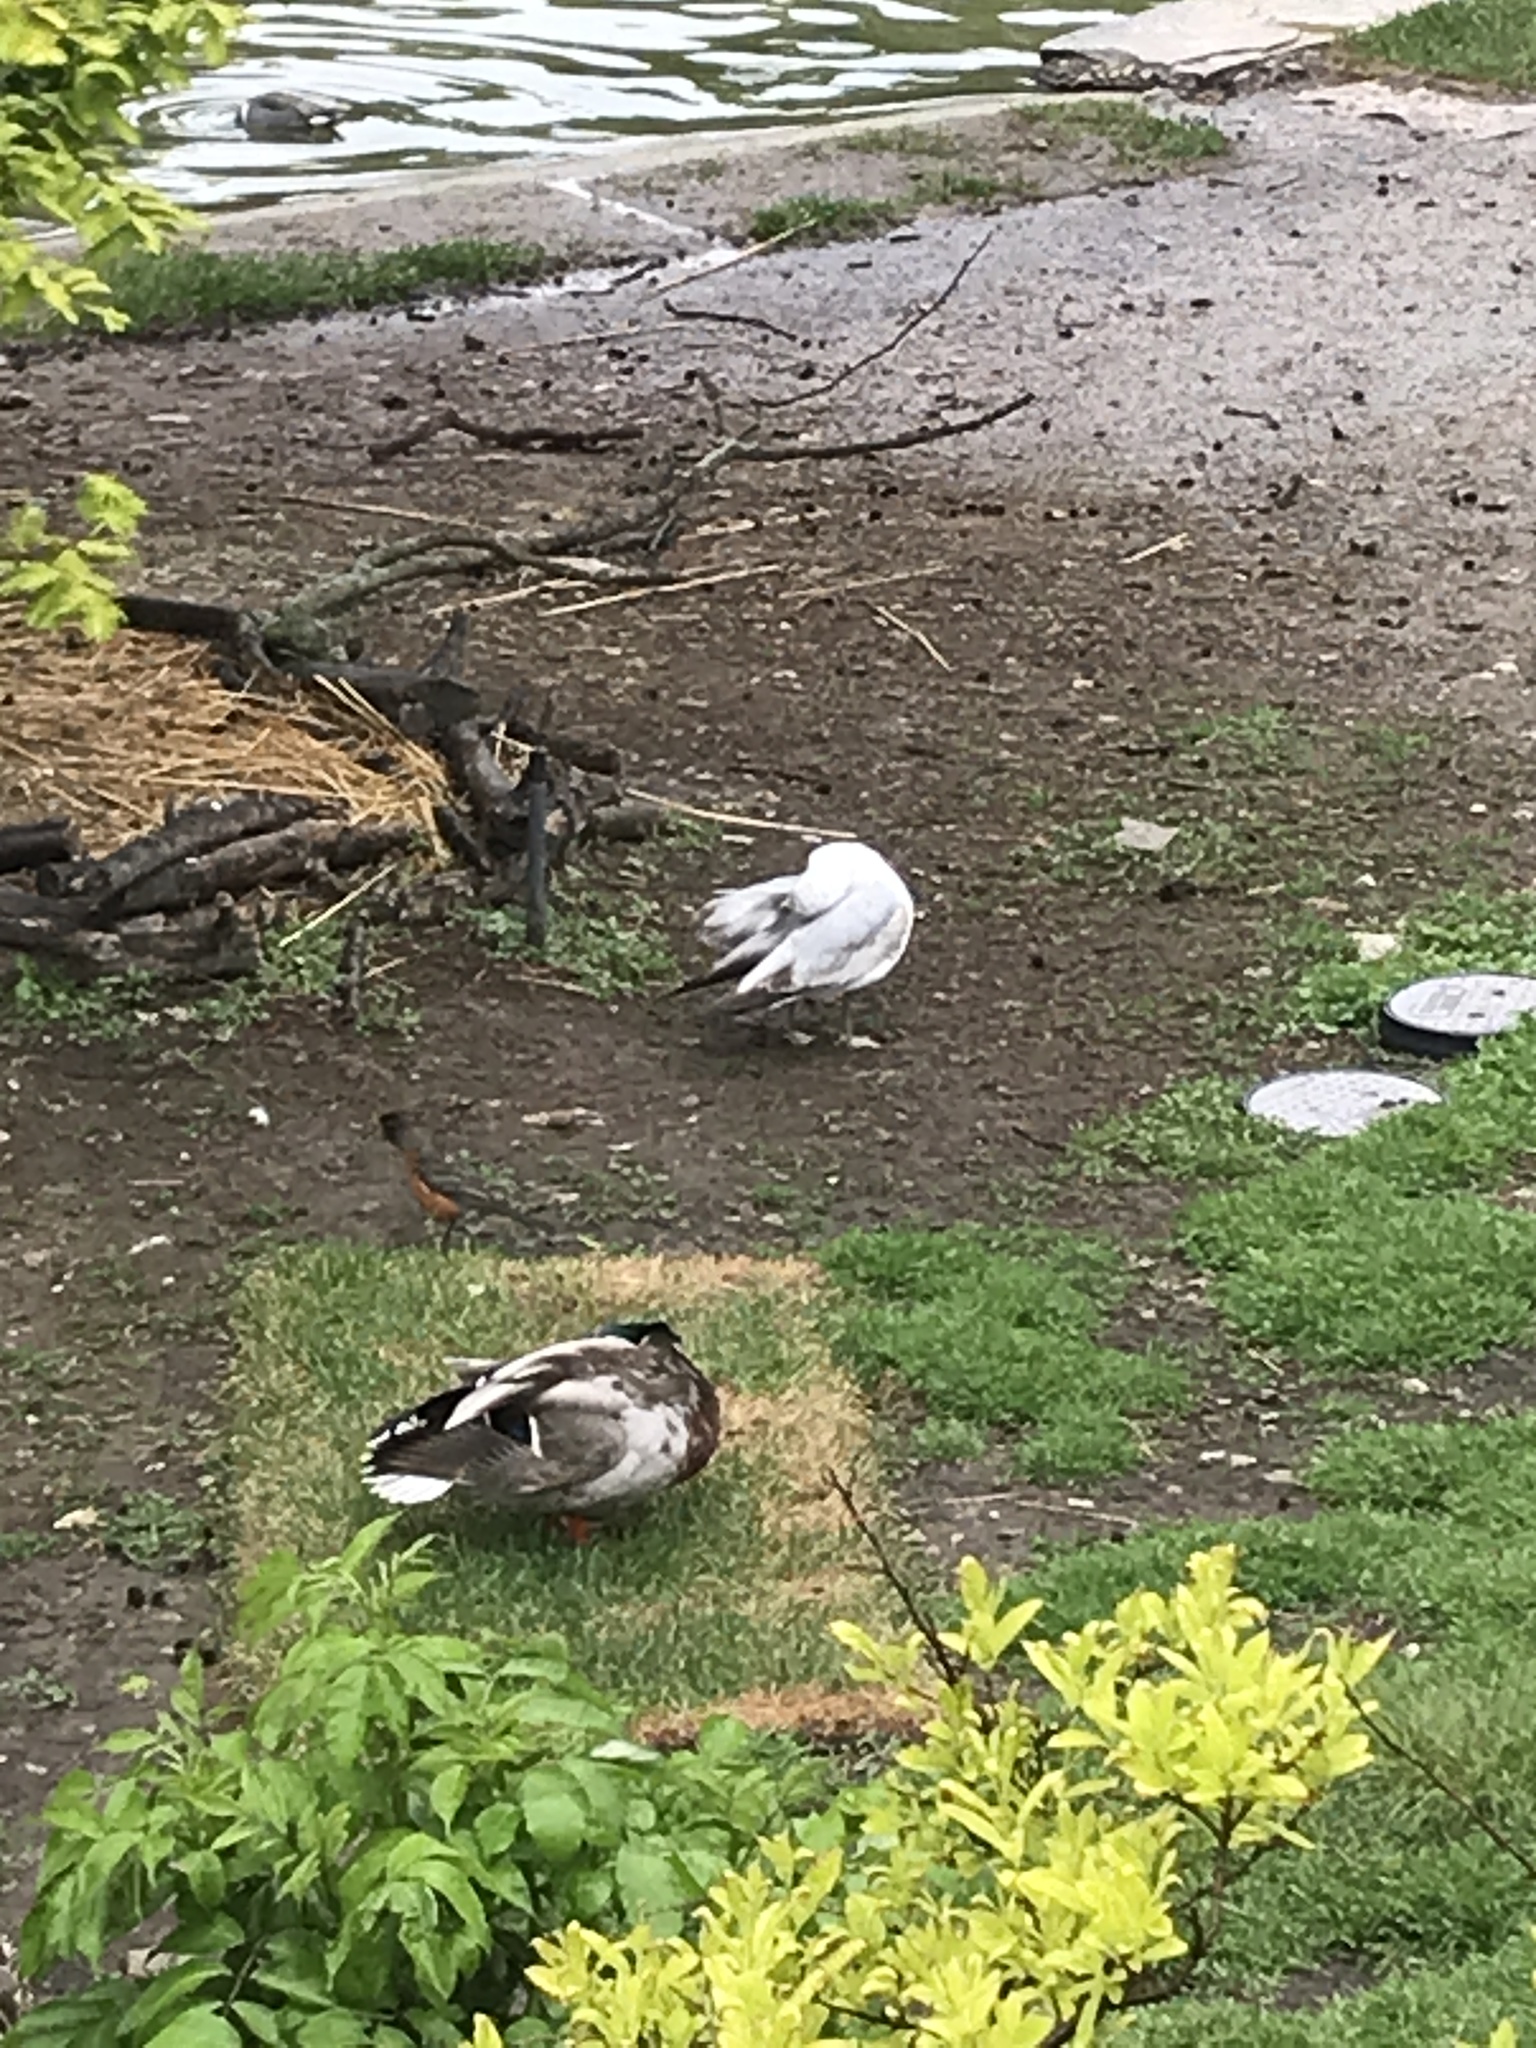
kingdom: Animalia
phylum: Chordata
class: Aves
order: Charadriiformes
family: Laridae
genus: Larus
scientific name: Larus delawarensis
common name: Ring-billed gull
